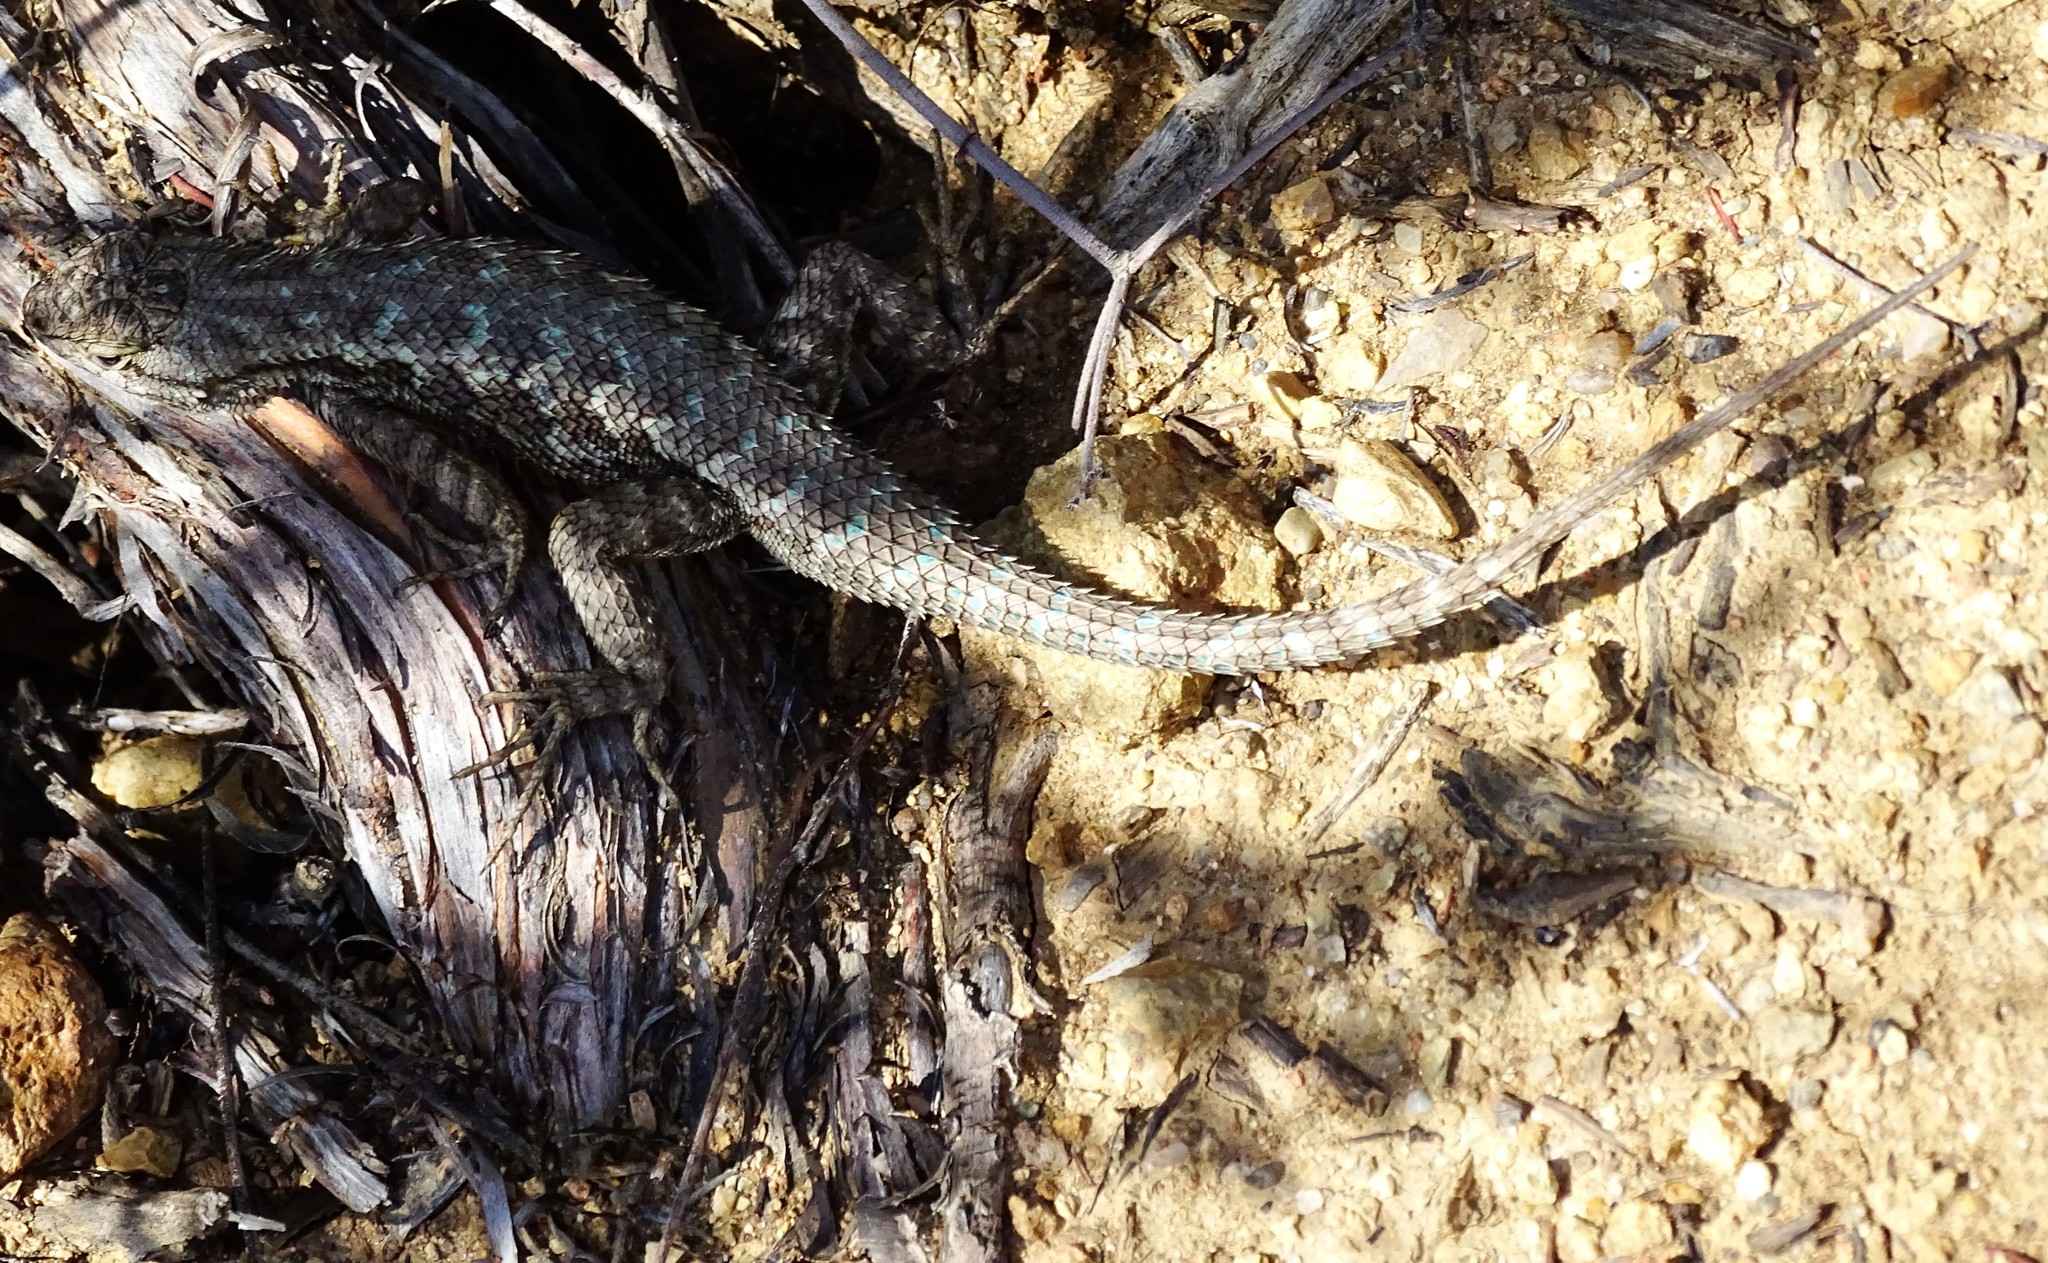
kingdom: Animalia
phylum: Chordata
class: Squamata
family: Phrynosomatidae
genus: Sceloporus
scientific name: Sceloporus occidentalis
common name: Western fence lizard
